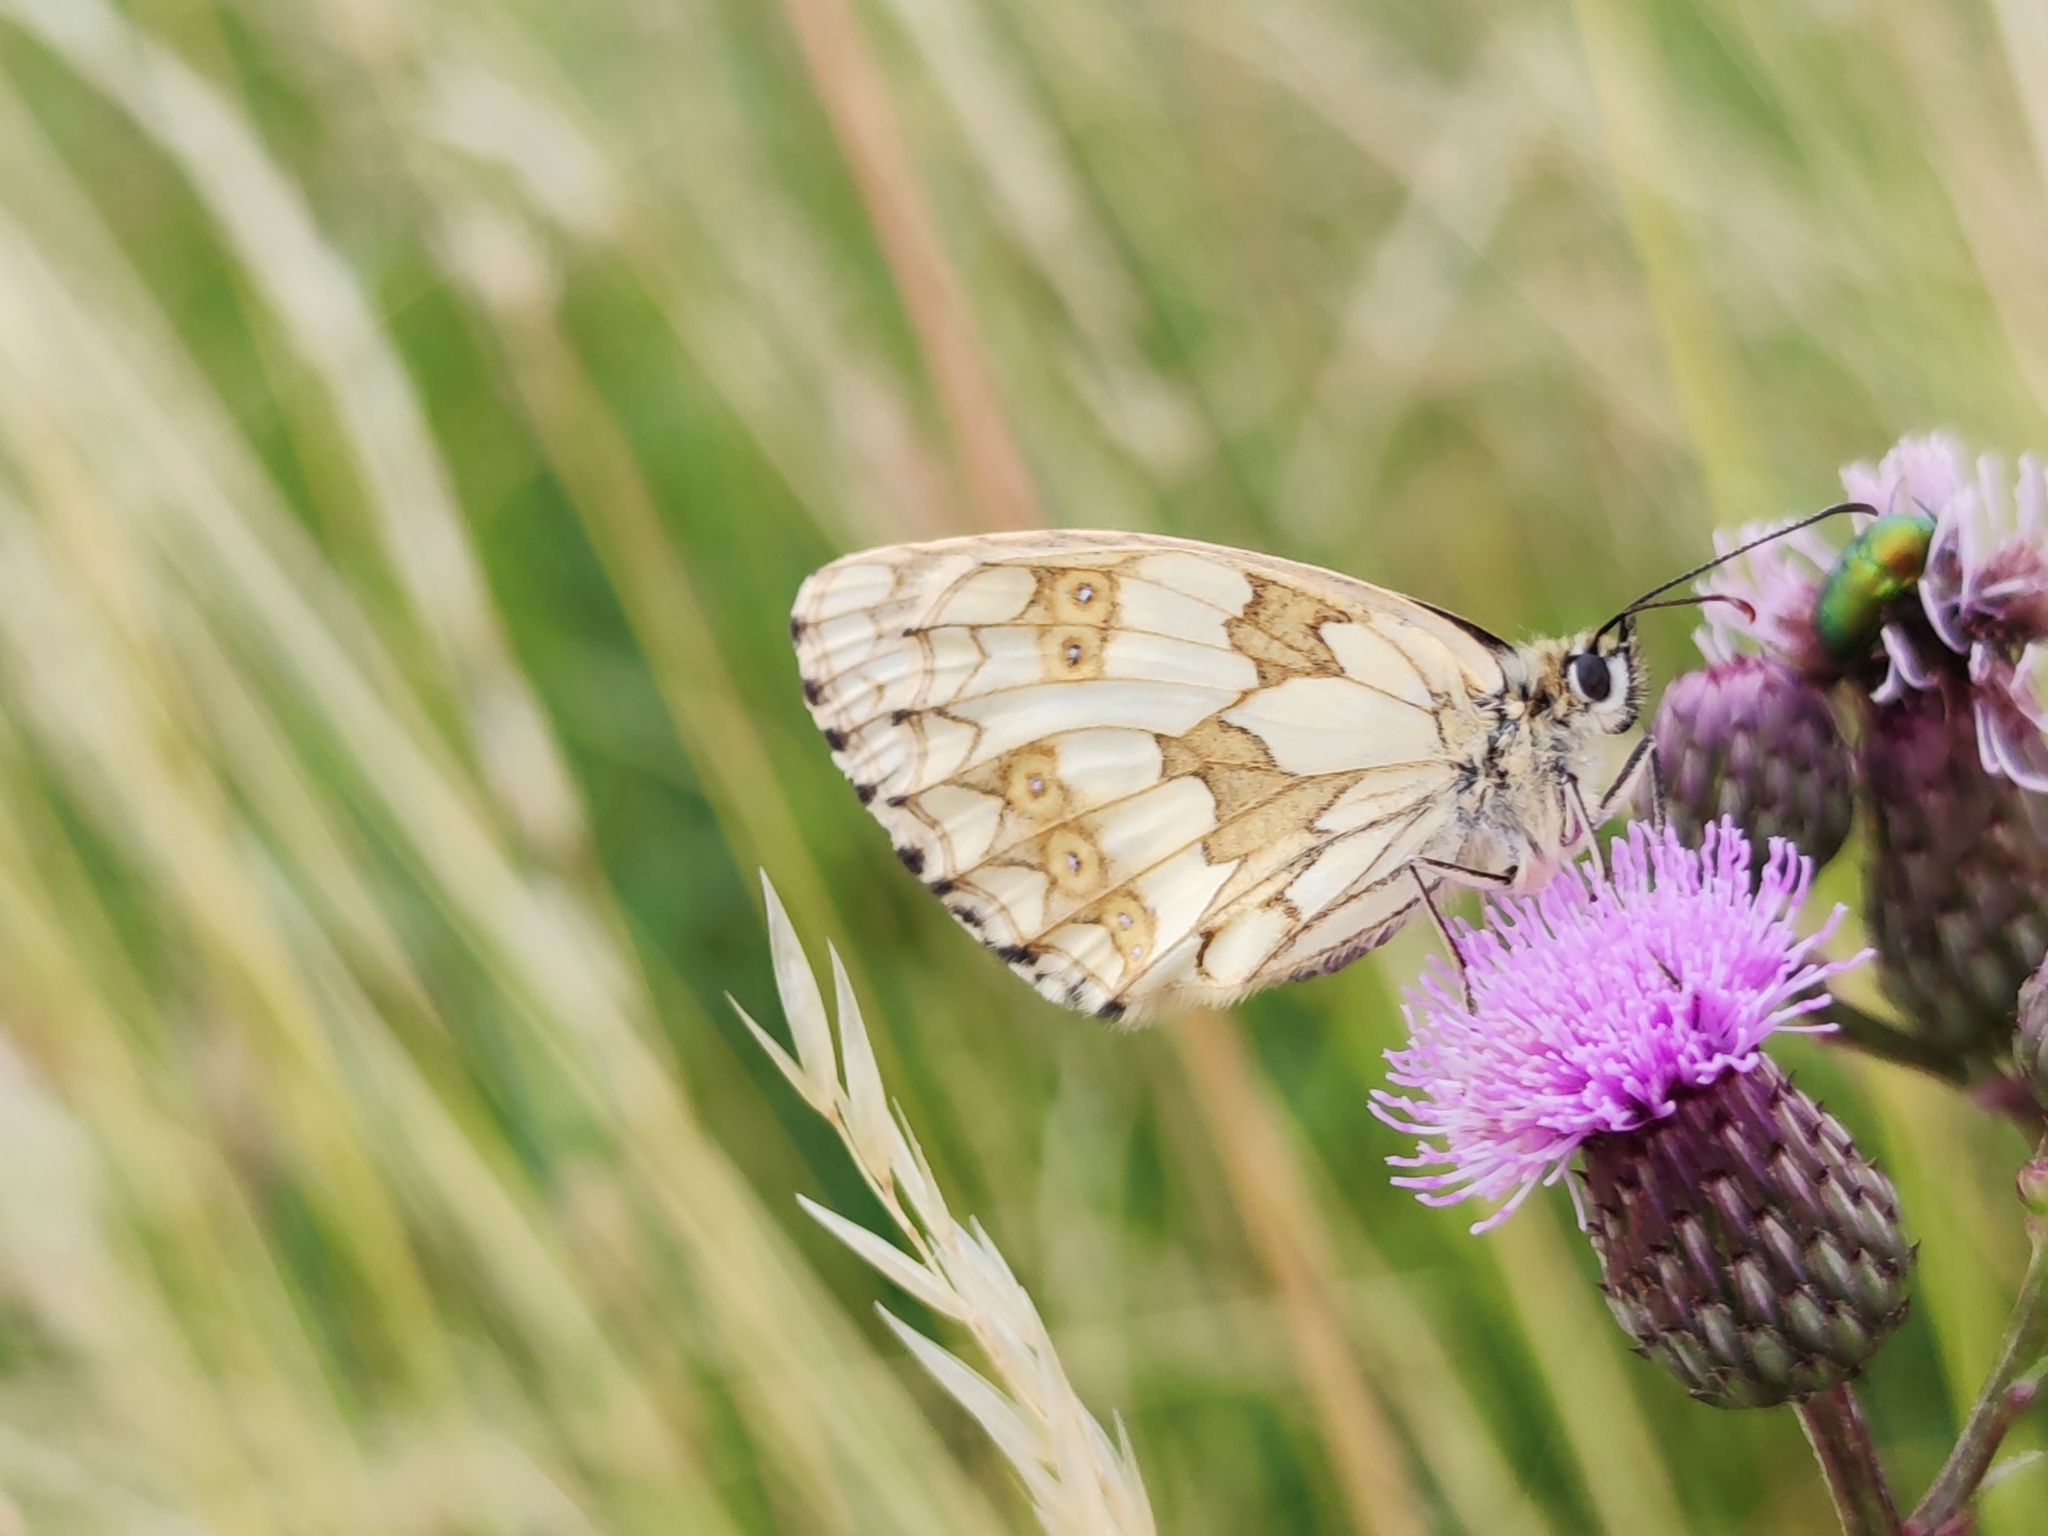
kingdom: Animalia
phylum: Arthropoda
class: Insecta
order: Lepidoptera
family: Nymphalidae
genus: Melanargia
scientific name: Melanargia galathea
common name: Marbled white
